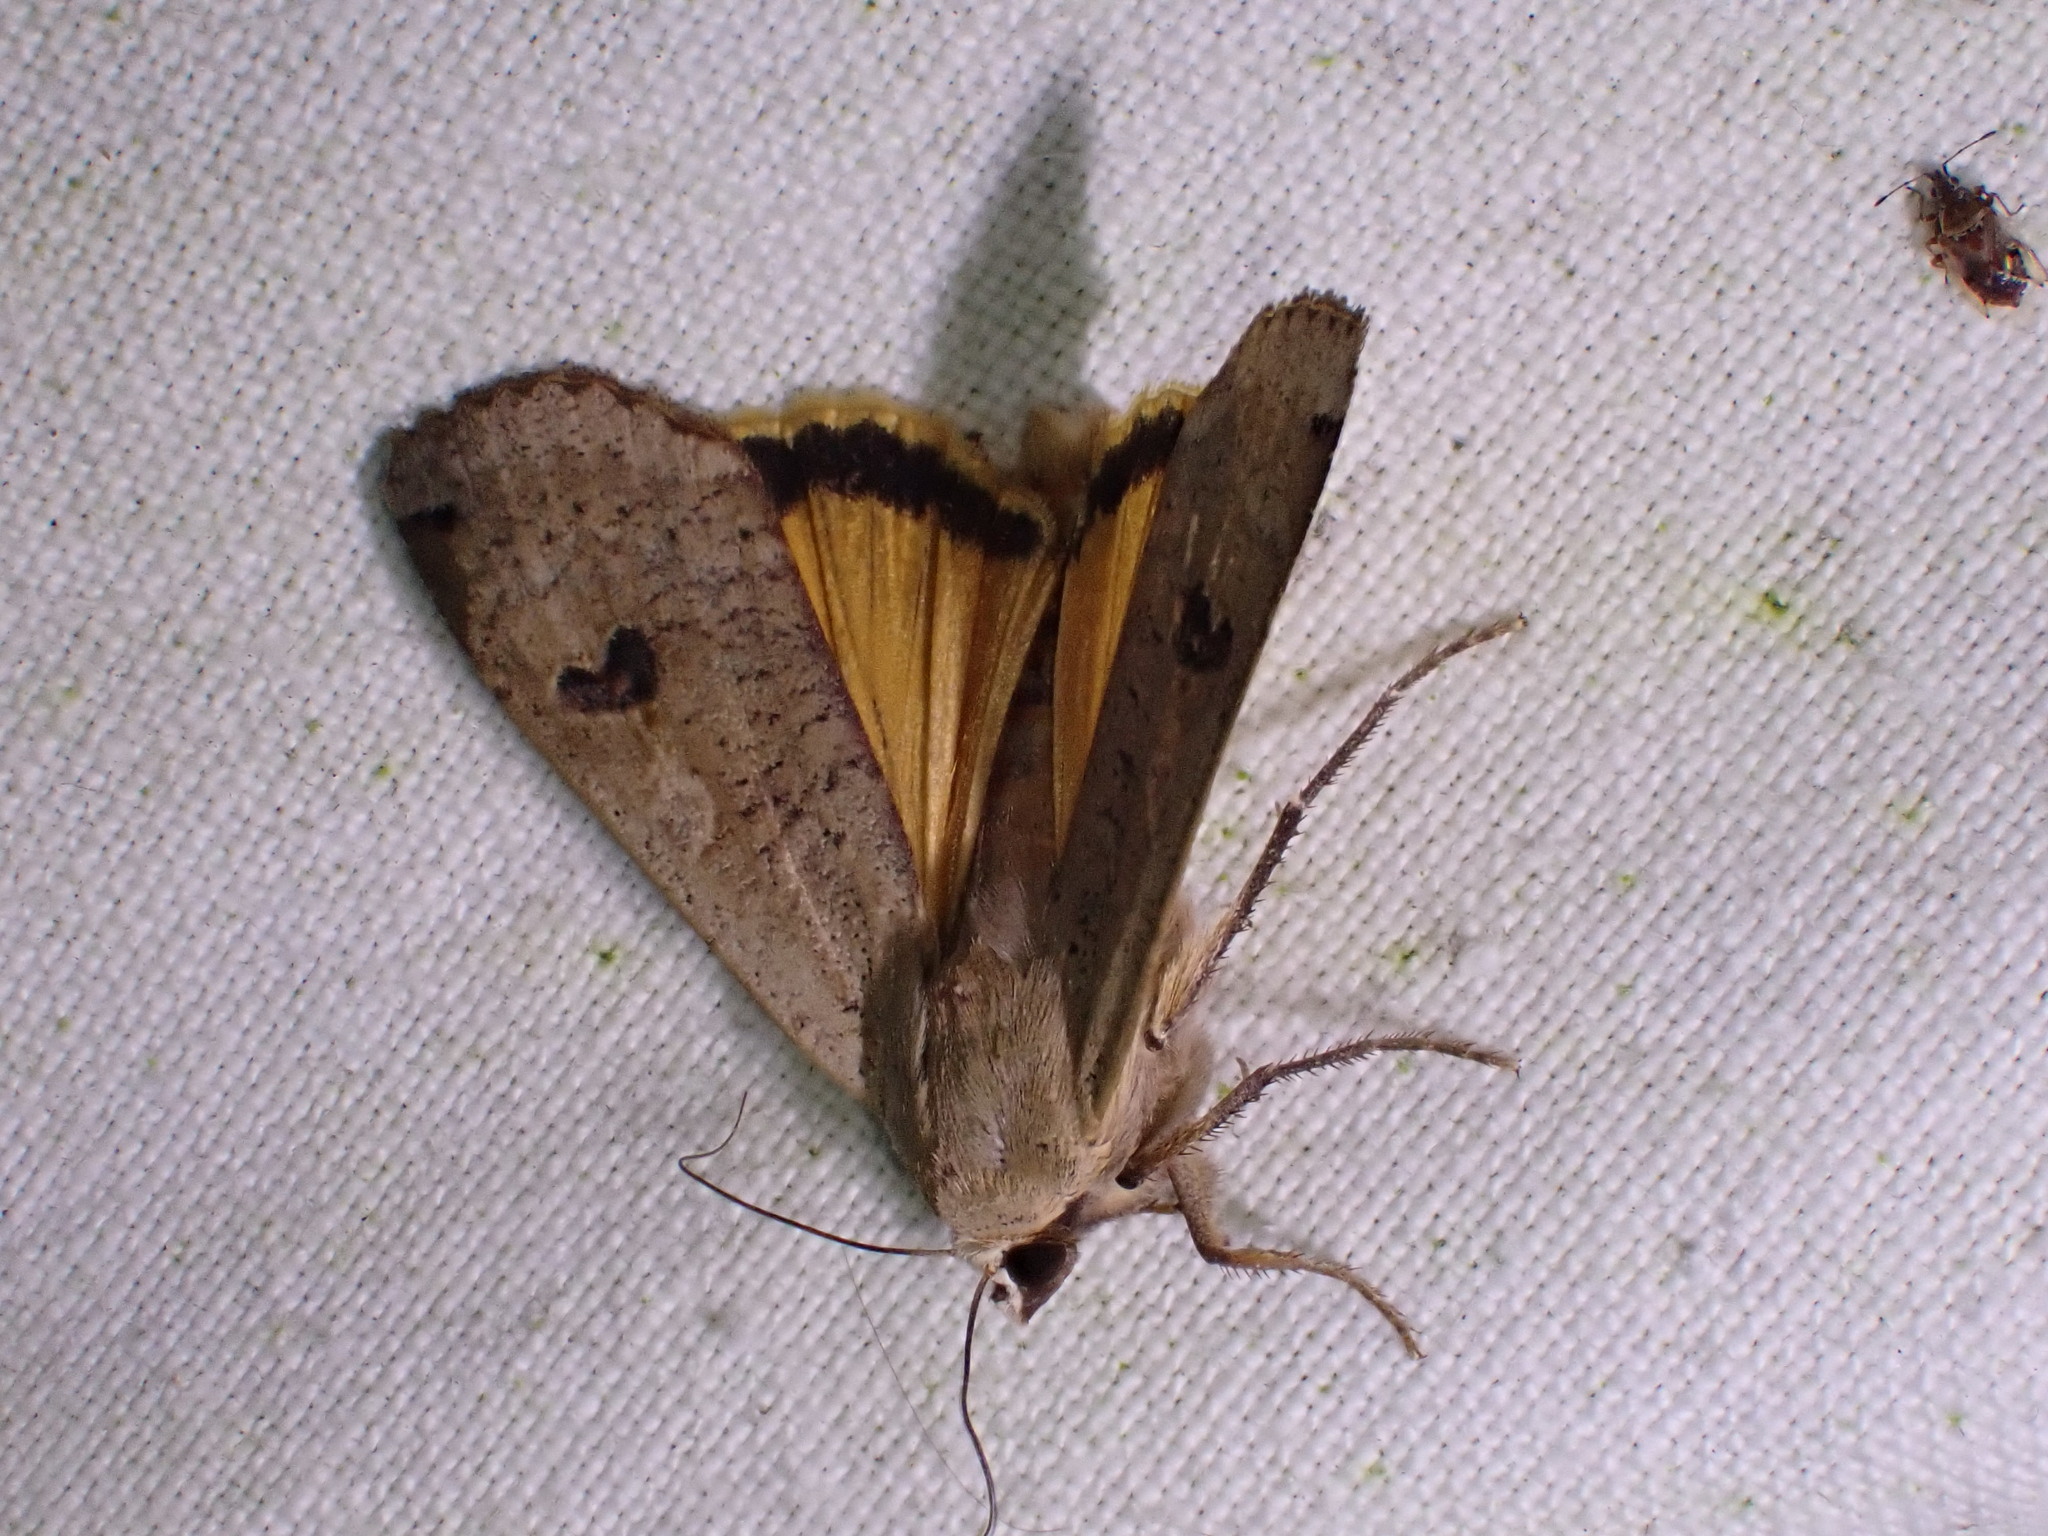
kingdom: Animalia
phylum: Arthropoda
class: Insecta
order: Lepidoptera
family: Noctuidae
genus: Noctua
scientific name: Noctua pronuba
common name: Large yellow underwing
